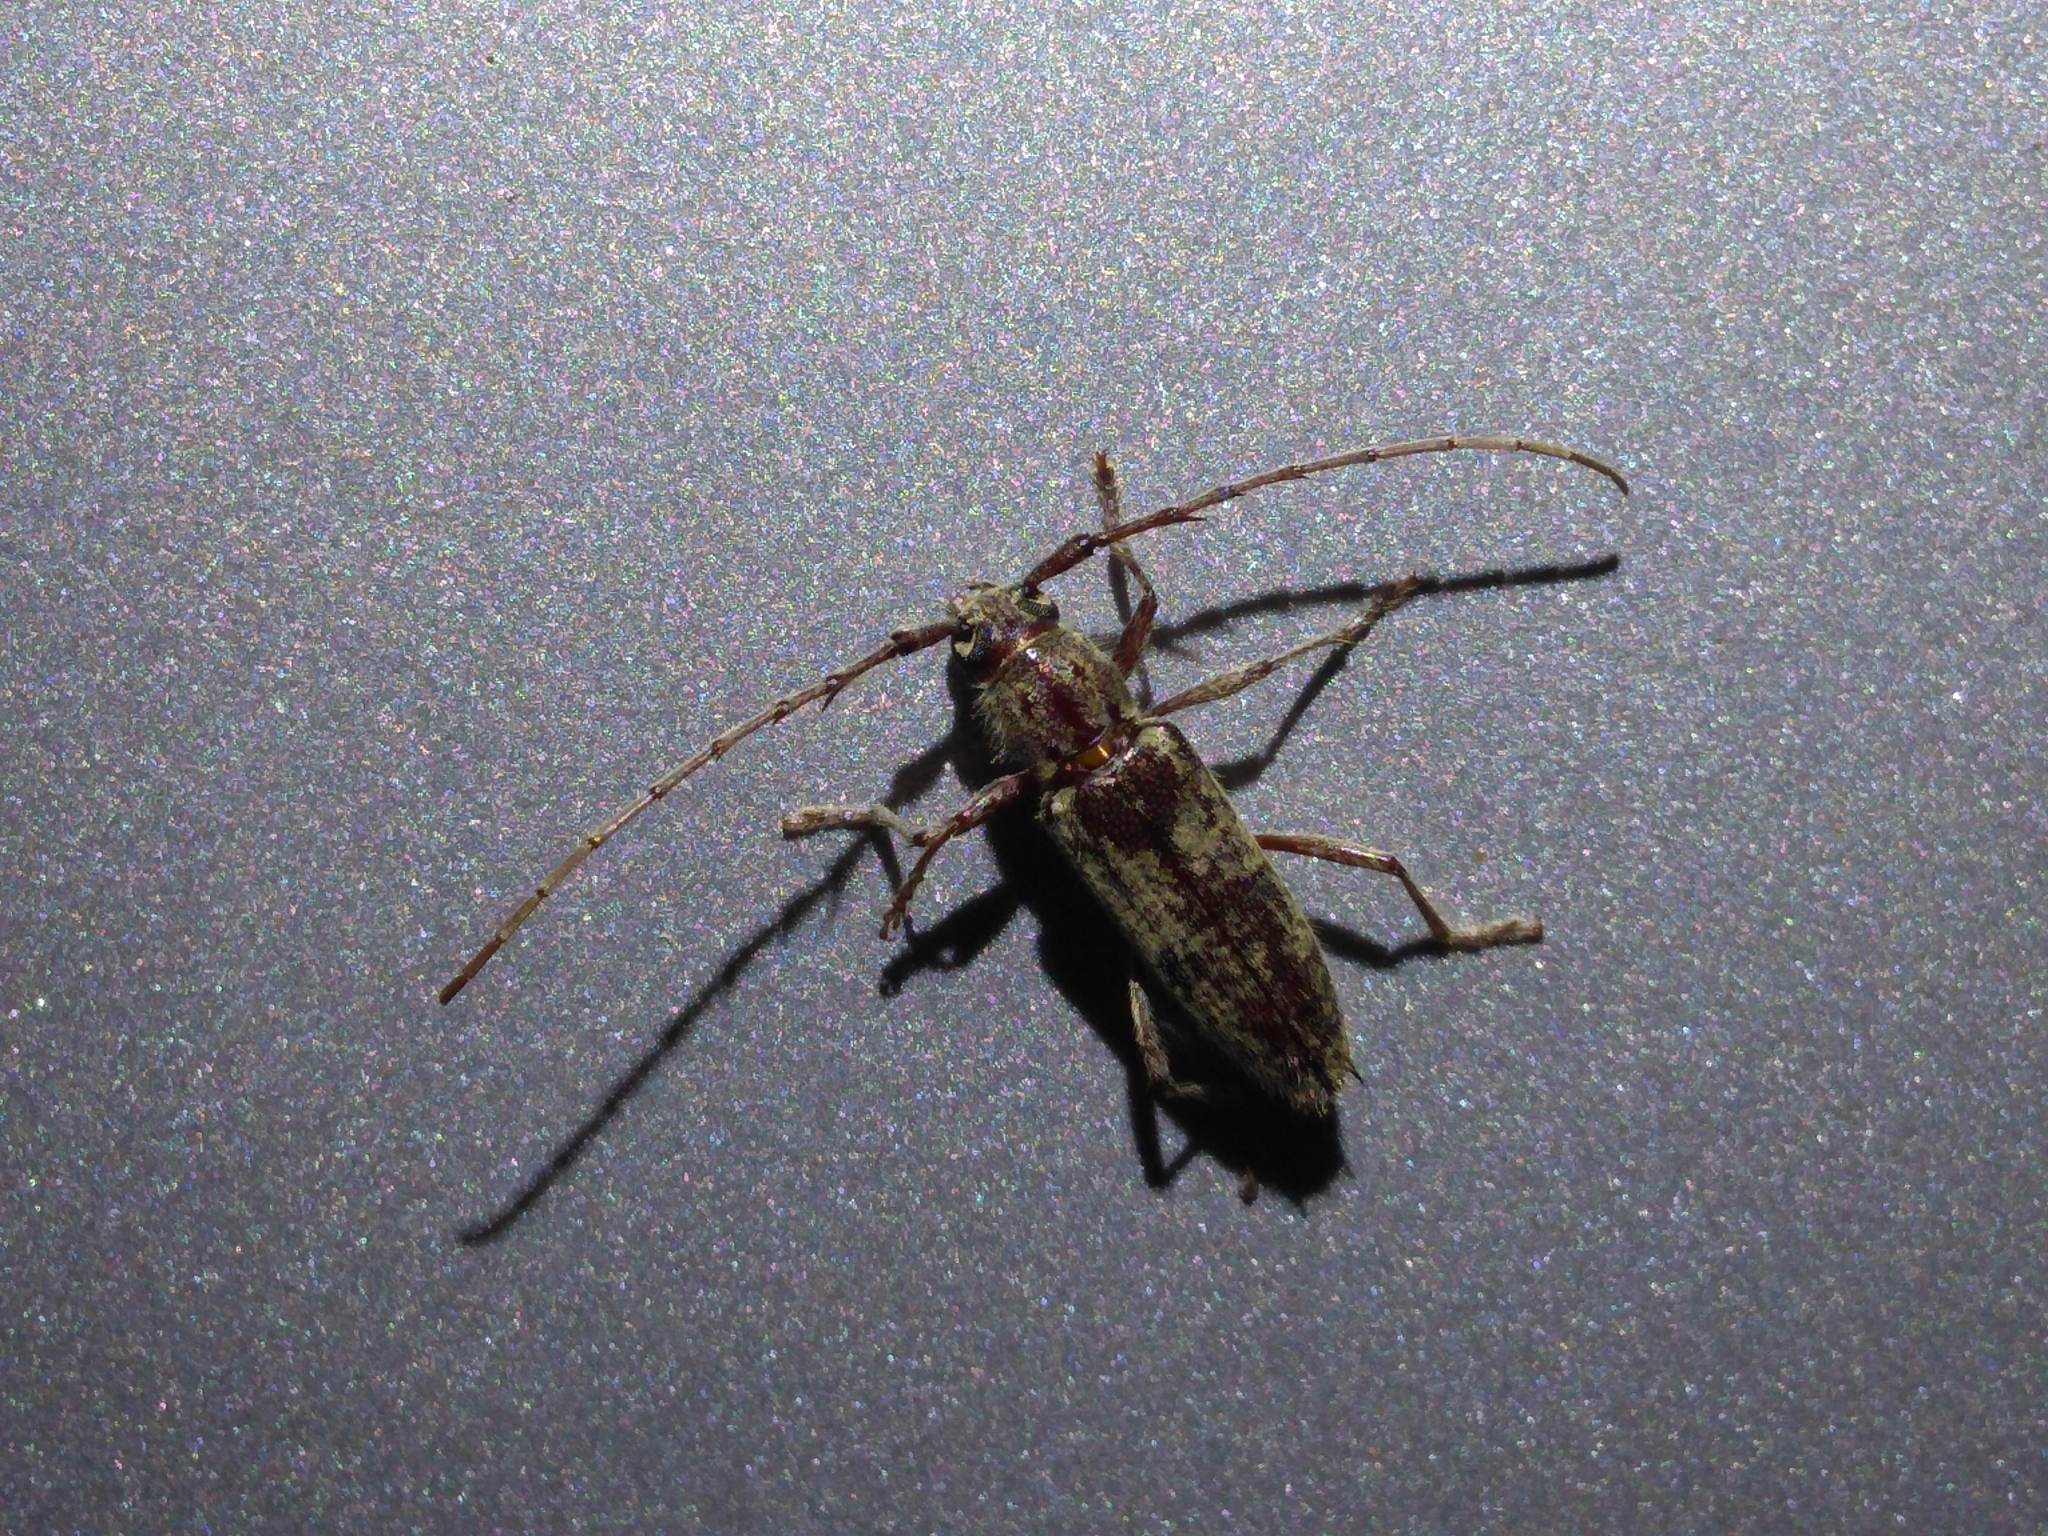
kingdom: Animalia
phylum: Arthropoda
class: Insecta
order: Coleoptera
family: Cerambycidae
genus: Elaphidion
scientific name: Elaphidion mucronatum
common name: Spined oak borer
